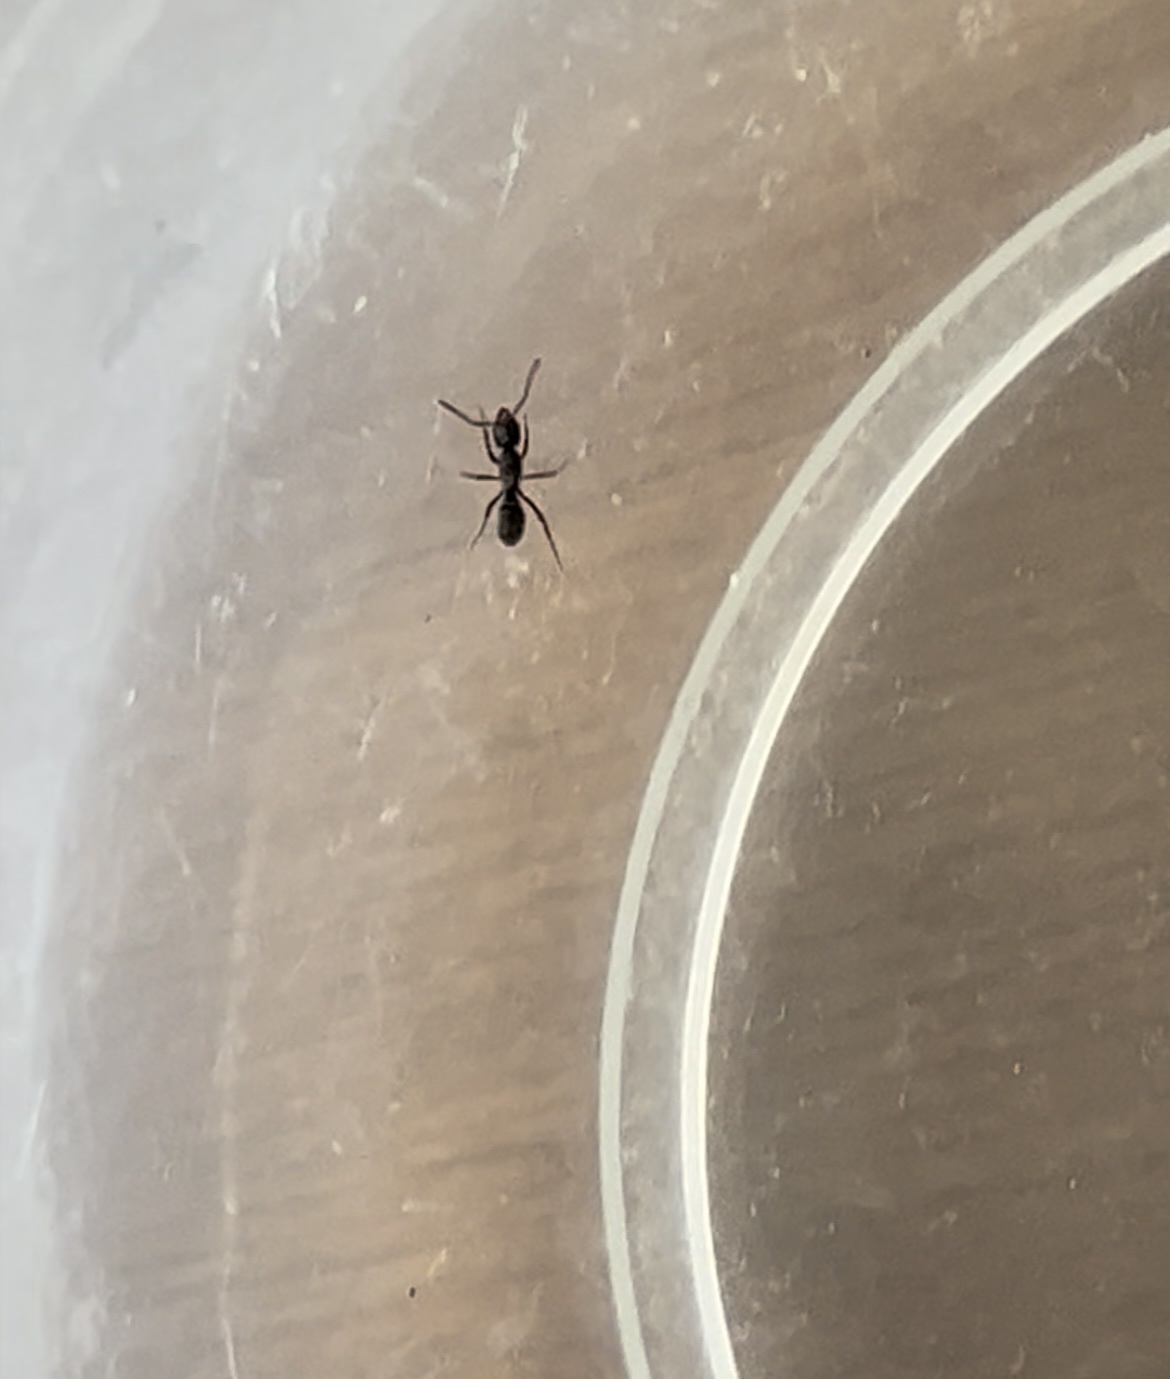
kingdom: Animalia
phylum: Arthropoda
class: Insecta
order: Hymenoptera
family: Formicidae
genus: Pachycondyla
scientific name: Pachycondyla chinensis
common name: Asian needle ant
